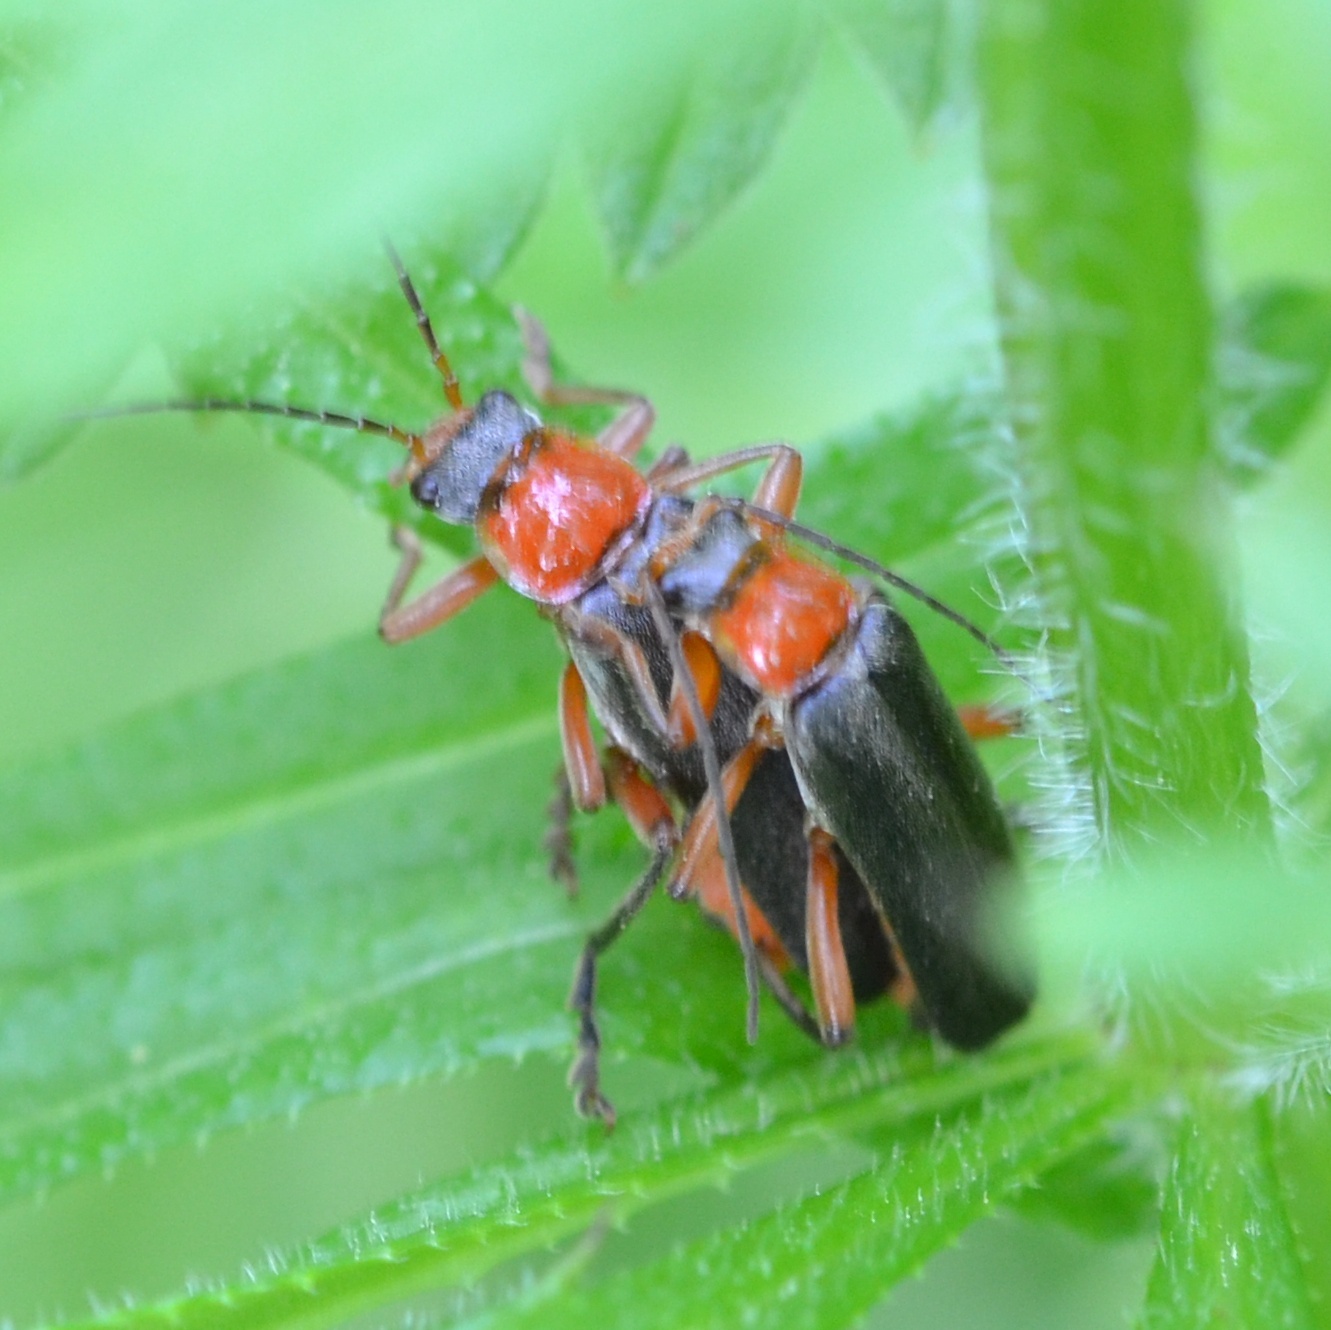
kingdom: Animalia
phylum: Arthropoda
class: Insecta
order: Coleoptera
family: Cantharidae
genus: Cantharis
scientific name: Cantharis pellucida
